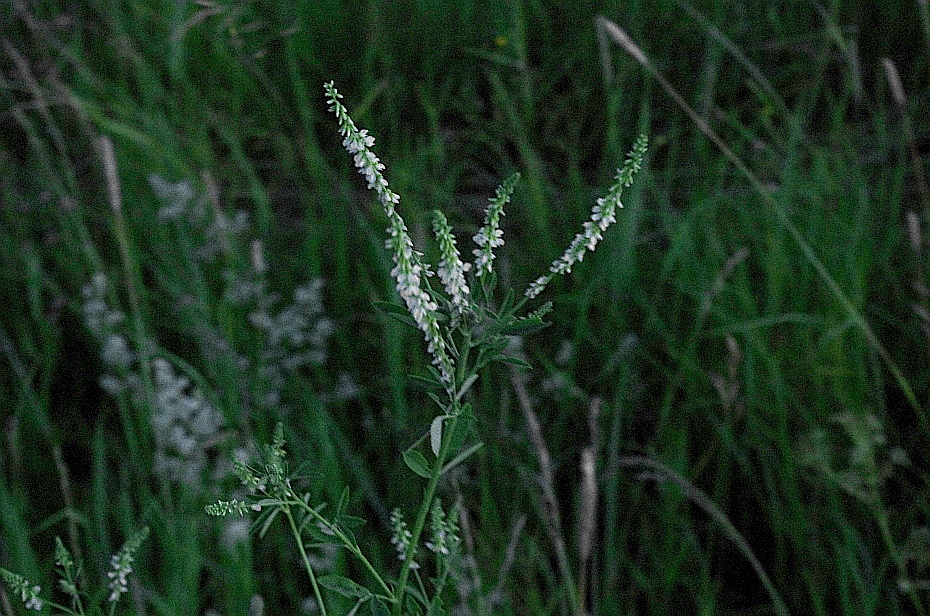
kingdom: Plantae
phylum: Tracheophyta
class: Magnoliopsida
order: Fabales
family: Fabaceae
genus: Melilotus
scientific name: Melilotus albus
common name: White melilot
